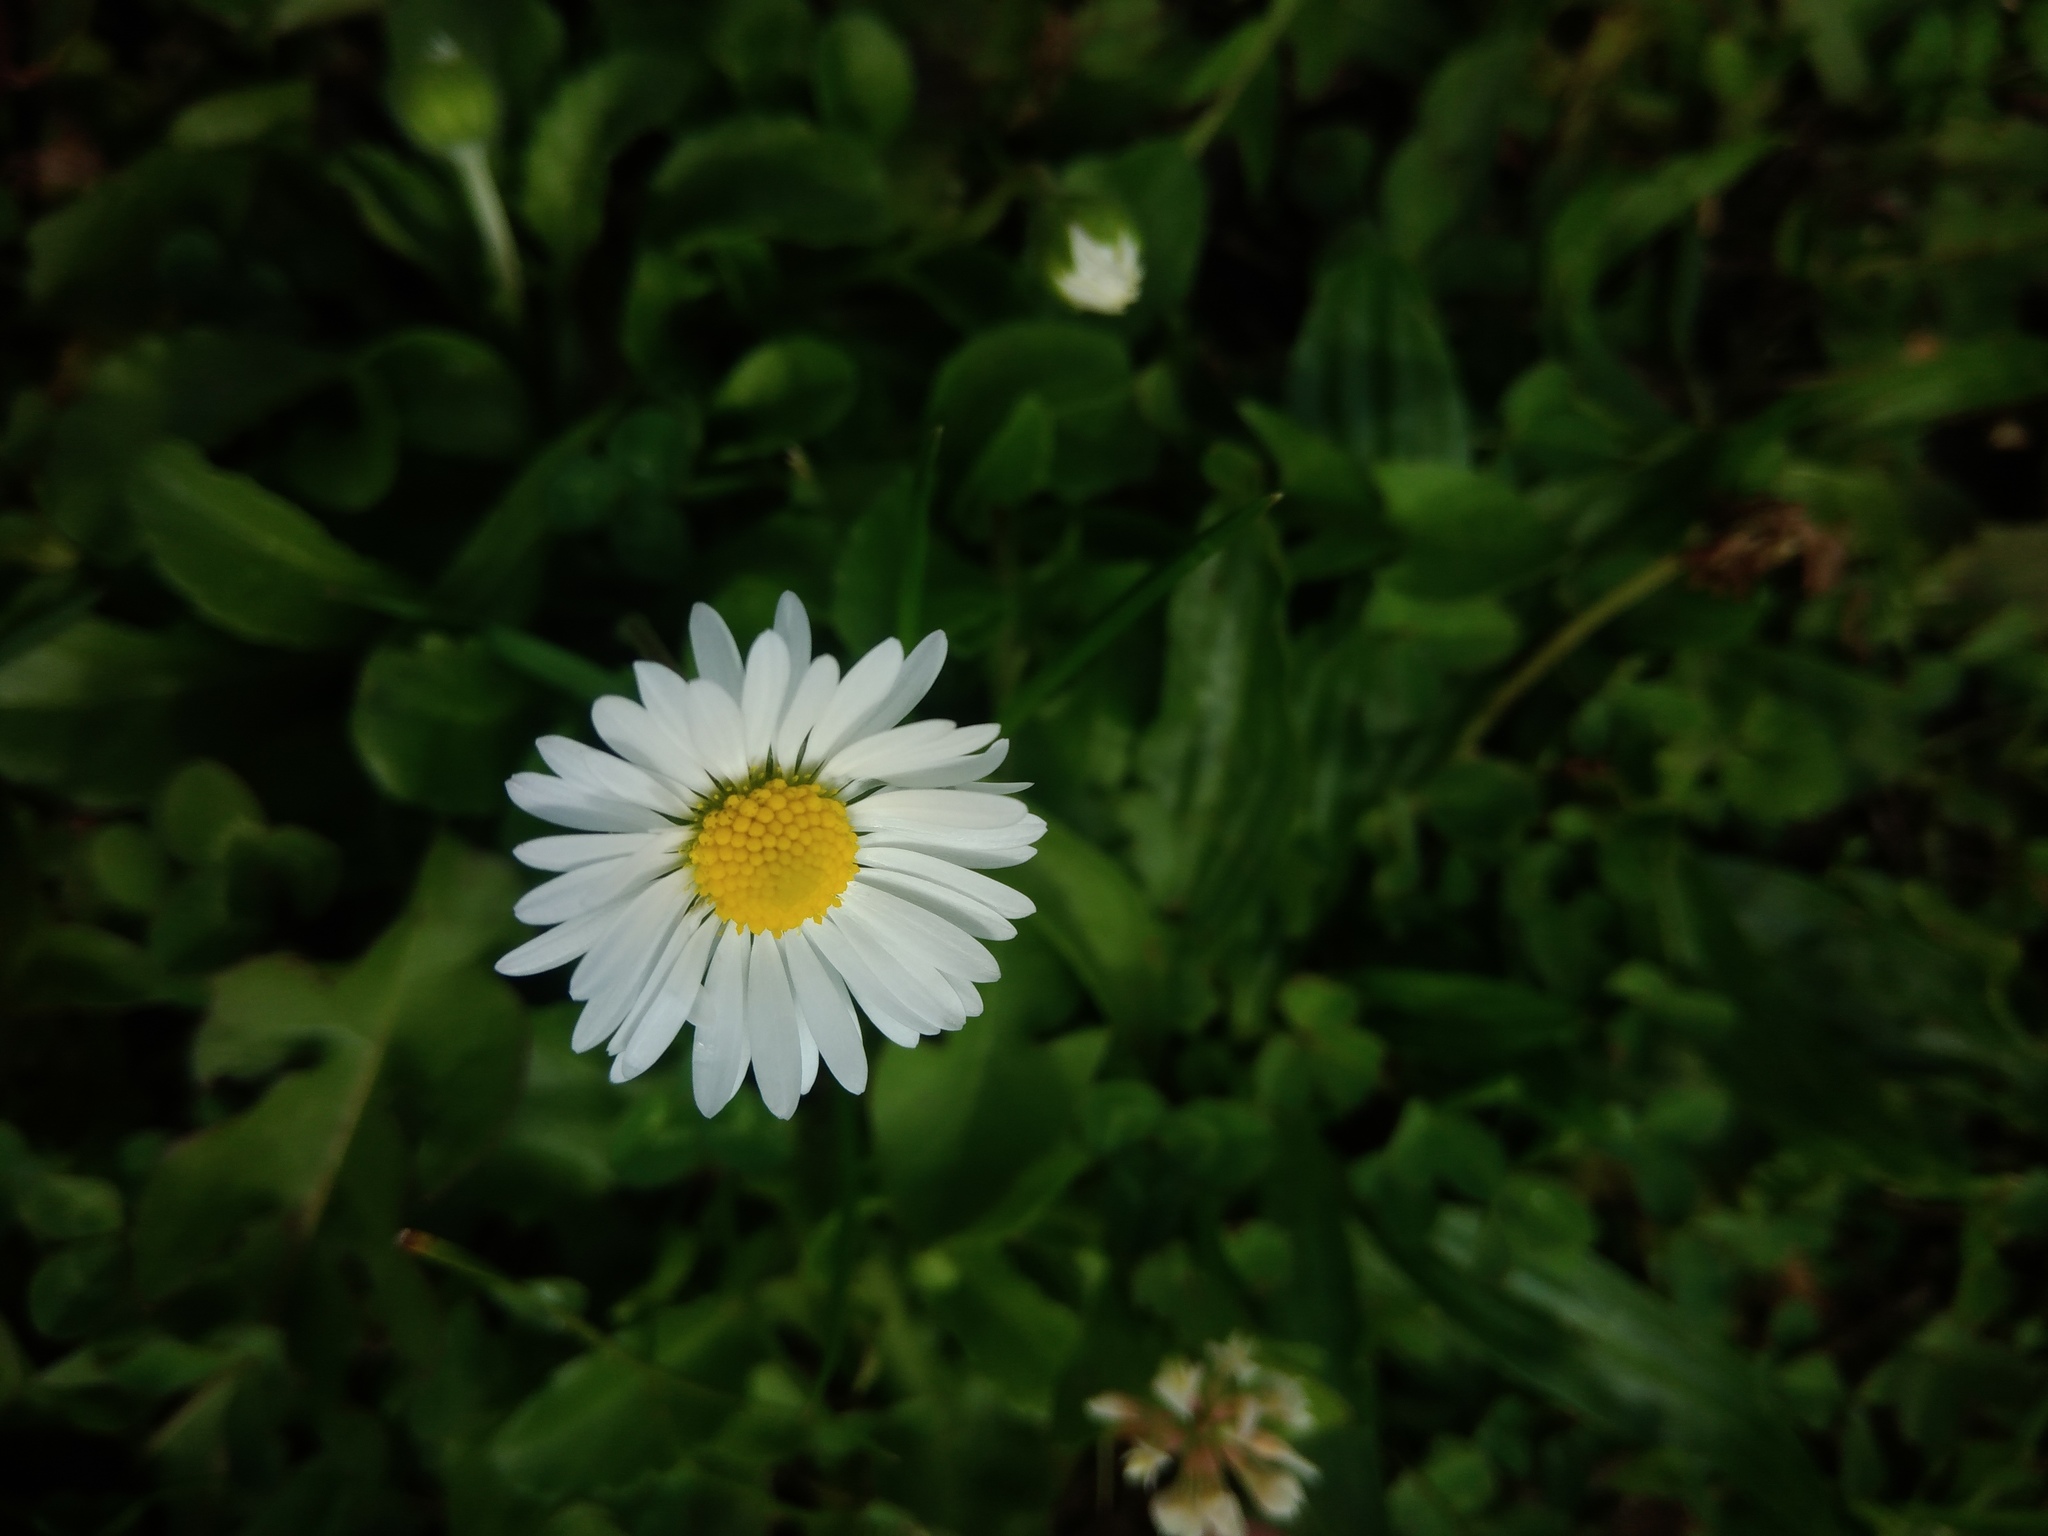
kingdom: Plantae
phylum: Tracheophyta
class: Magnoliopsida
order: Asterales
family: Asteraceae
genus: Bellis
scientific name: Bellis perennis
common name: Lawndaisy
